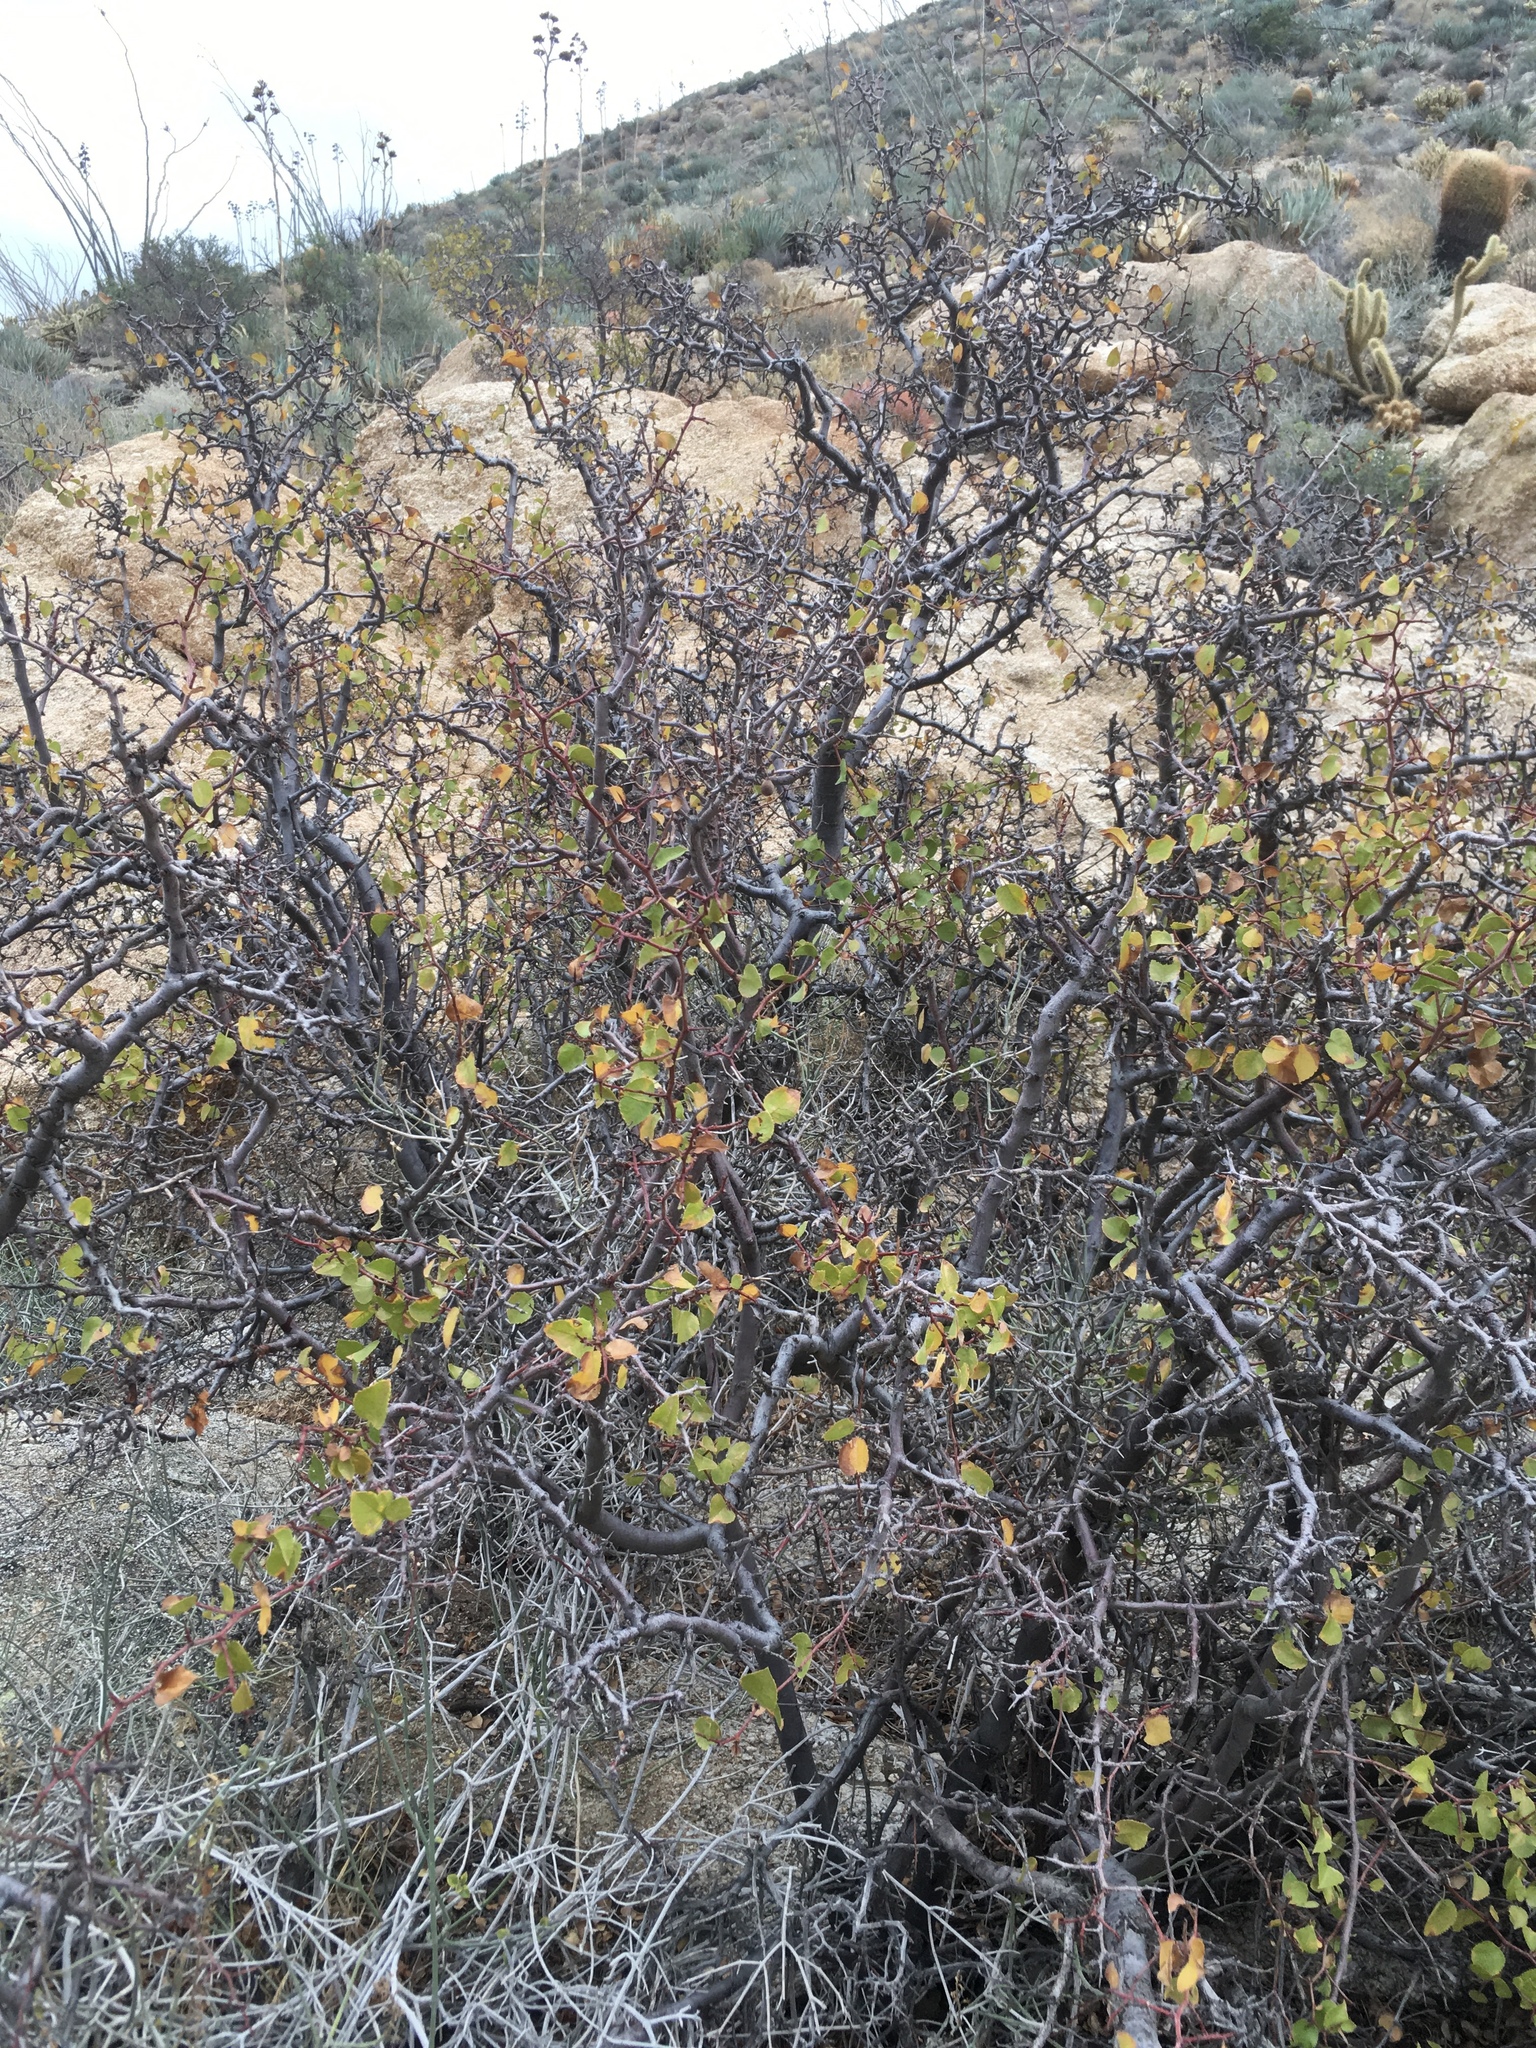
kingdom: Plantae
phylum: Tracheophyta
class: Magnoliopsida
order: Rosales
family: Rosaceae
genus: Prunus
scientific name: Prunus fremontii
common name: Desert apricot
